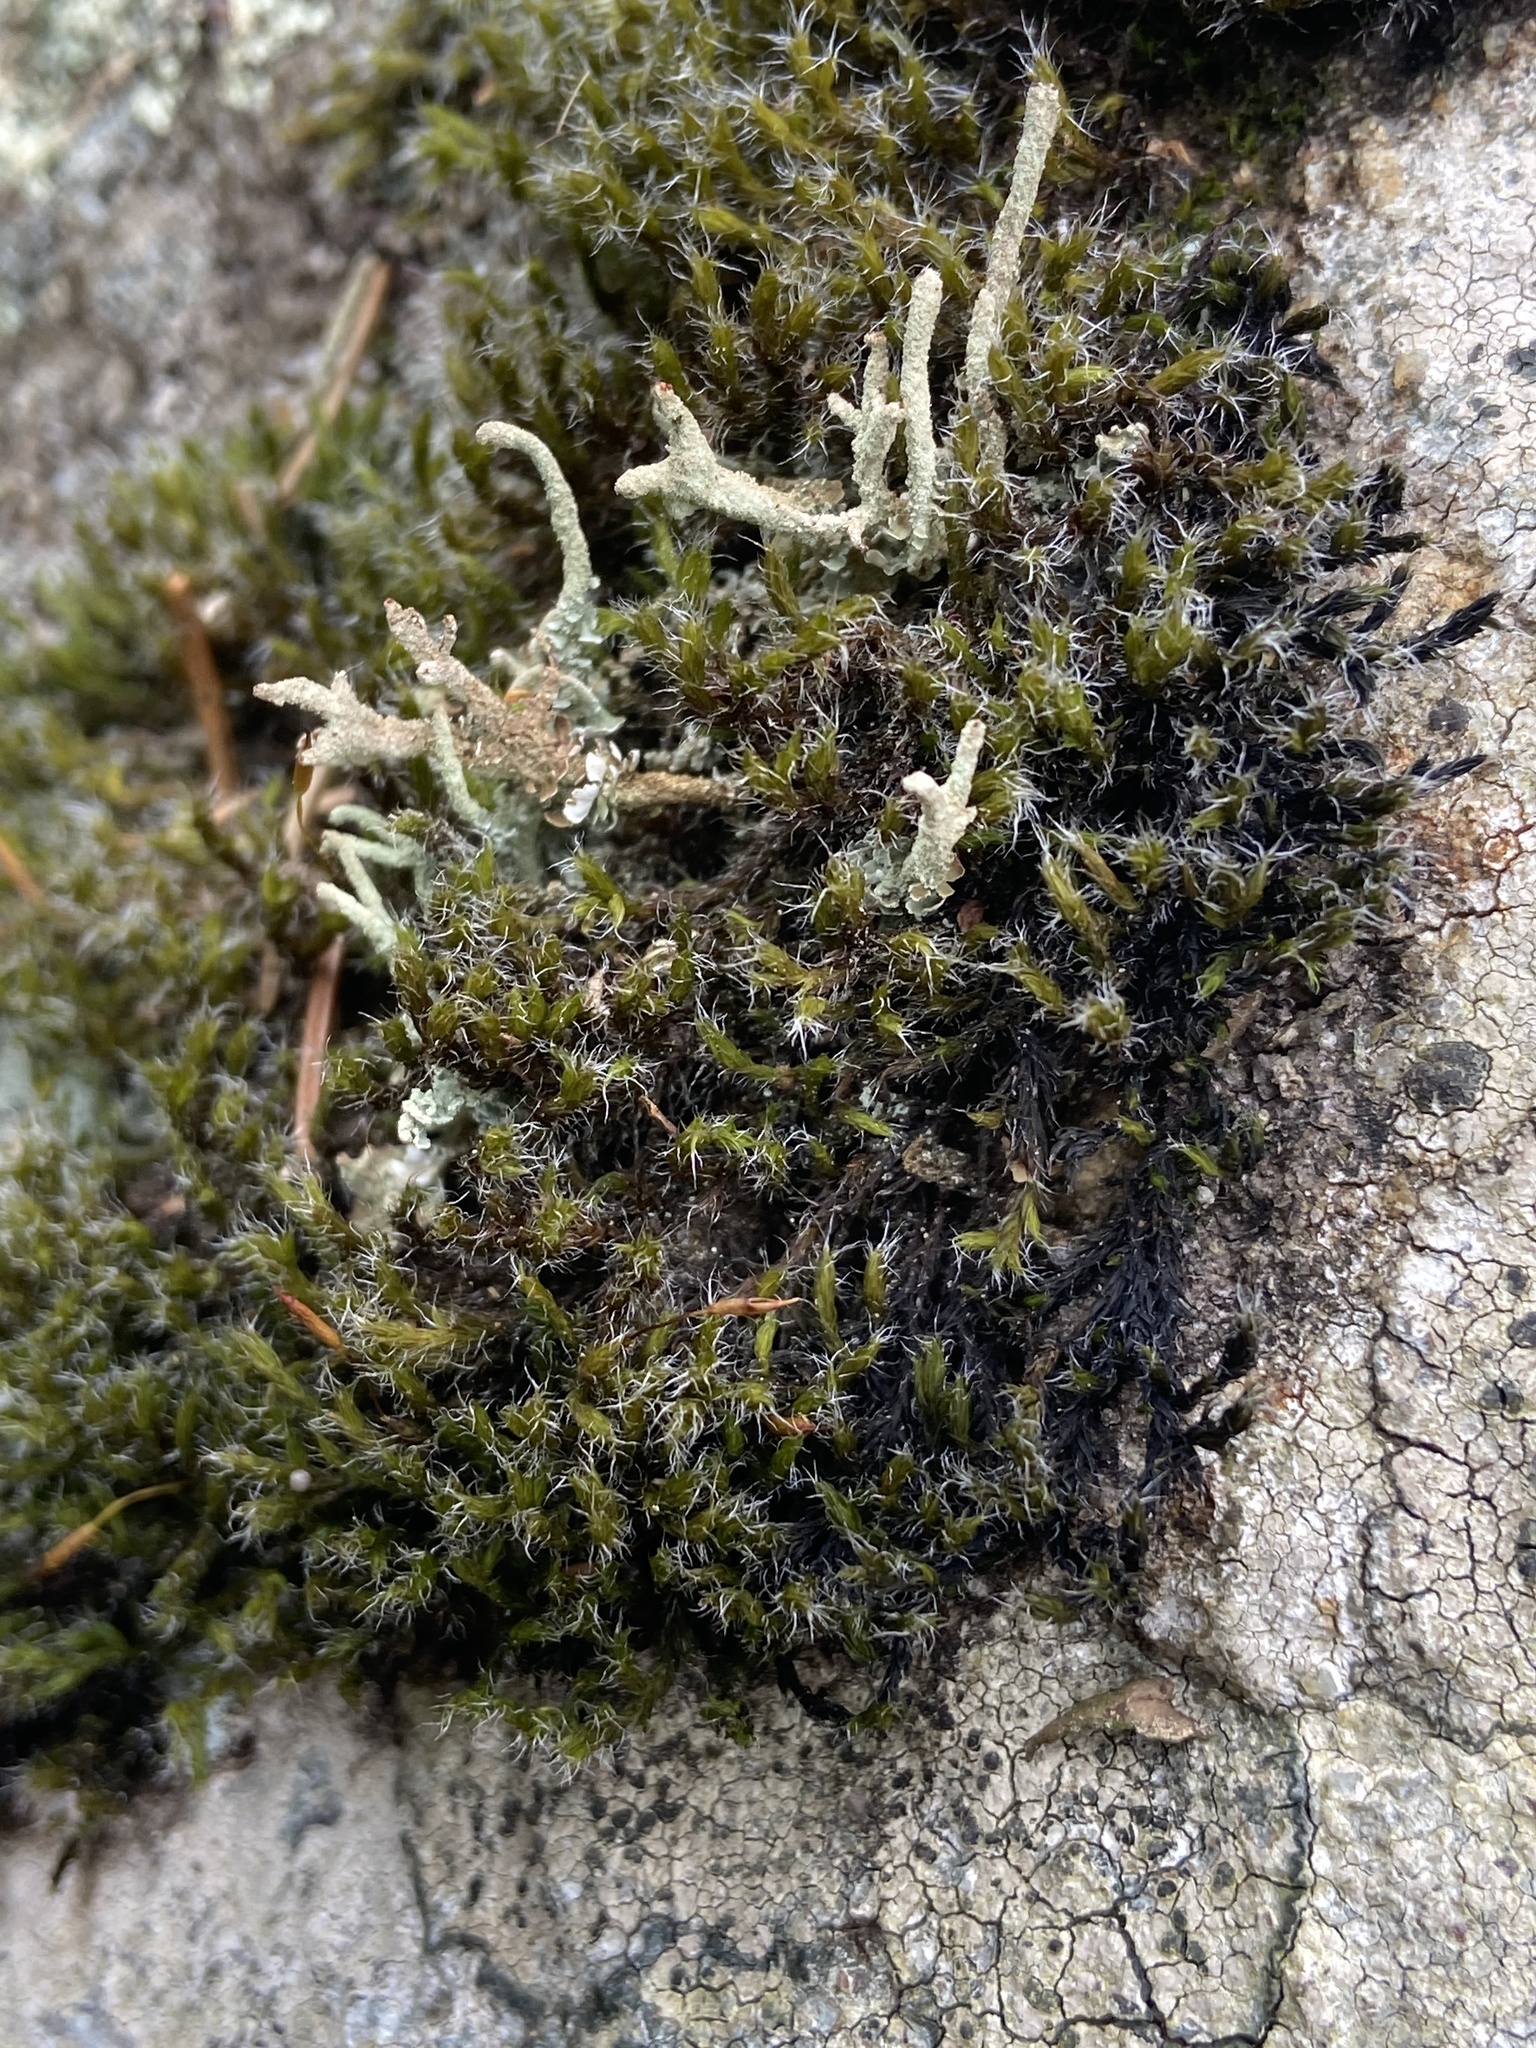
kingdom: Plantae
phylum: Bryophyta
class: Bryopsida
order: Grimmiales
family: Grimmiaceae
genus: Bucklandiella
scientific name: Bucklandiella heterosticha
